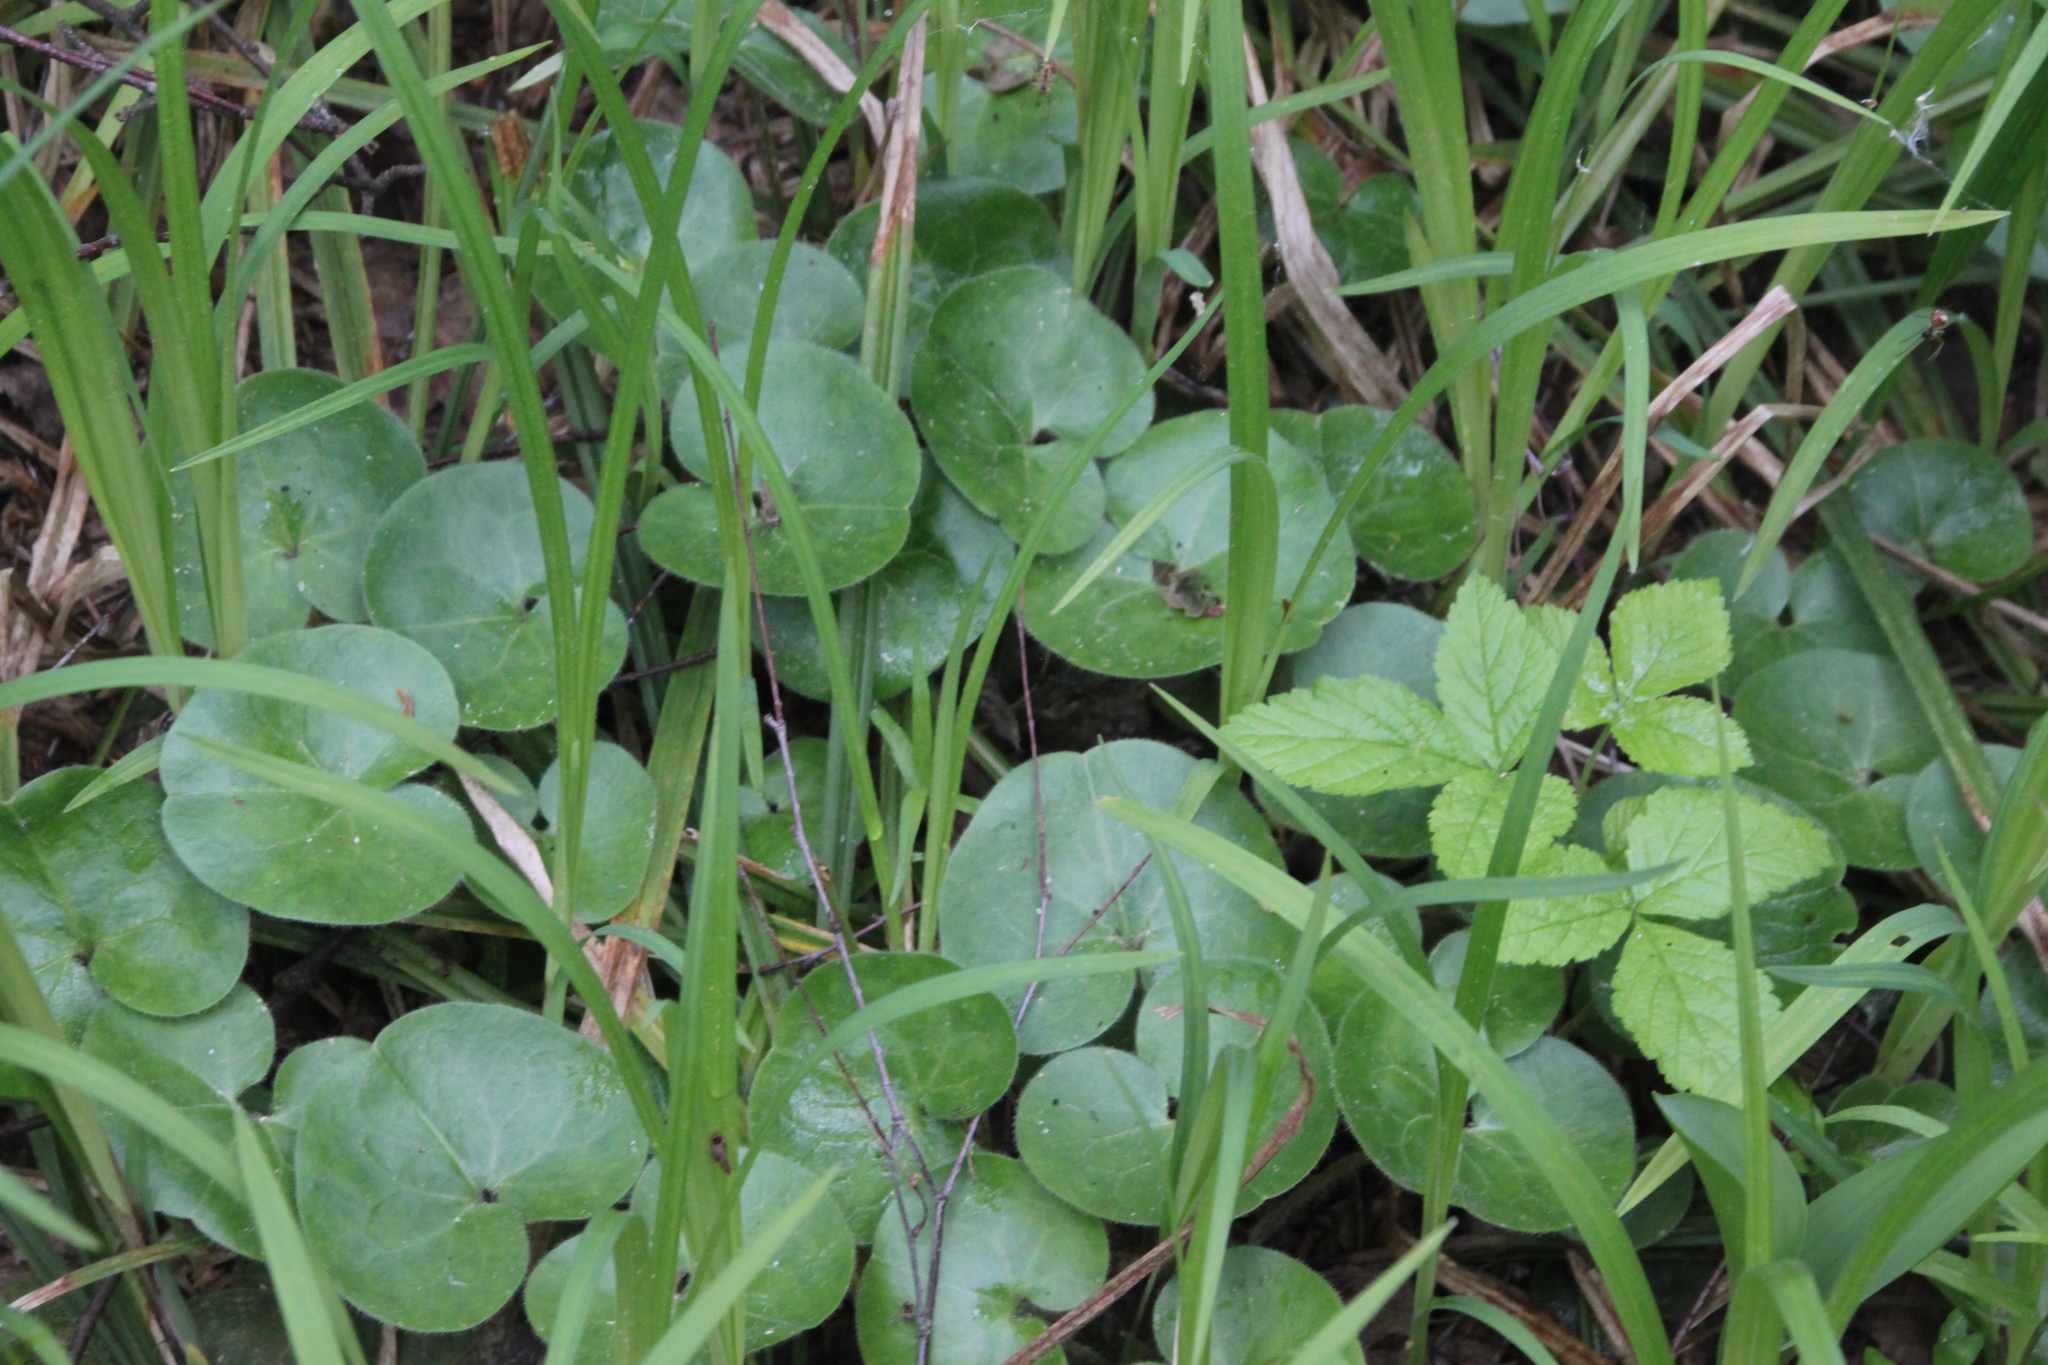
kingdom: Plantae
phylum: Tracheophyta
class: Magnoliopsida
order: Piperales
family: Aristolochiaceae
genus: Asarum
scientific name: Asarum europaeum
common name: Asarabacca
